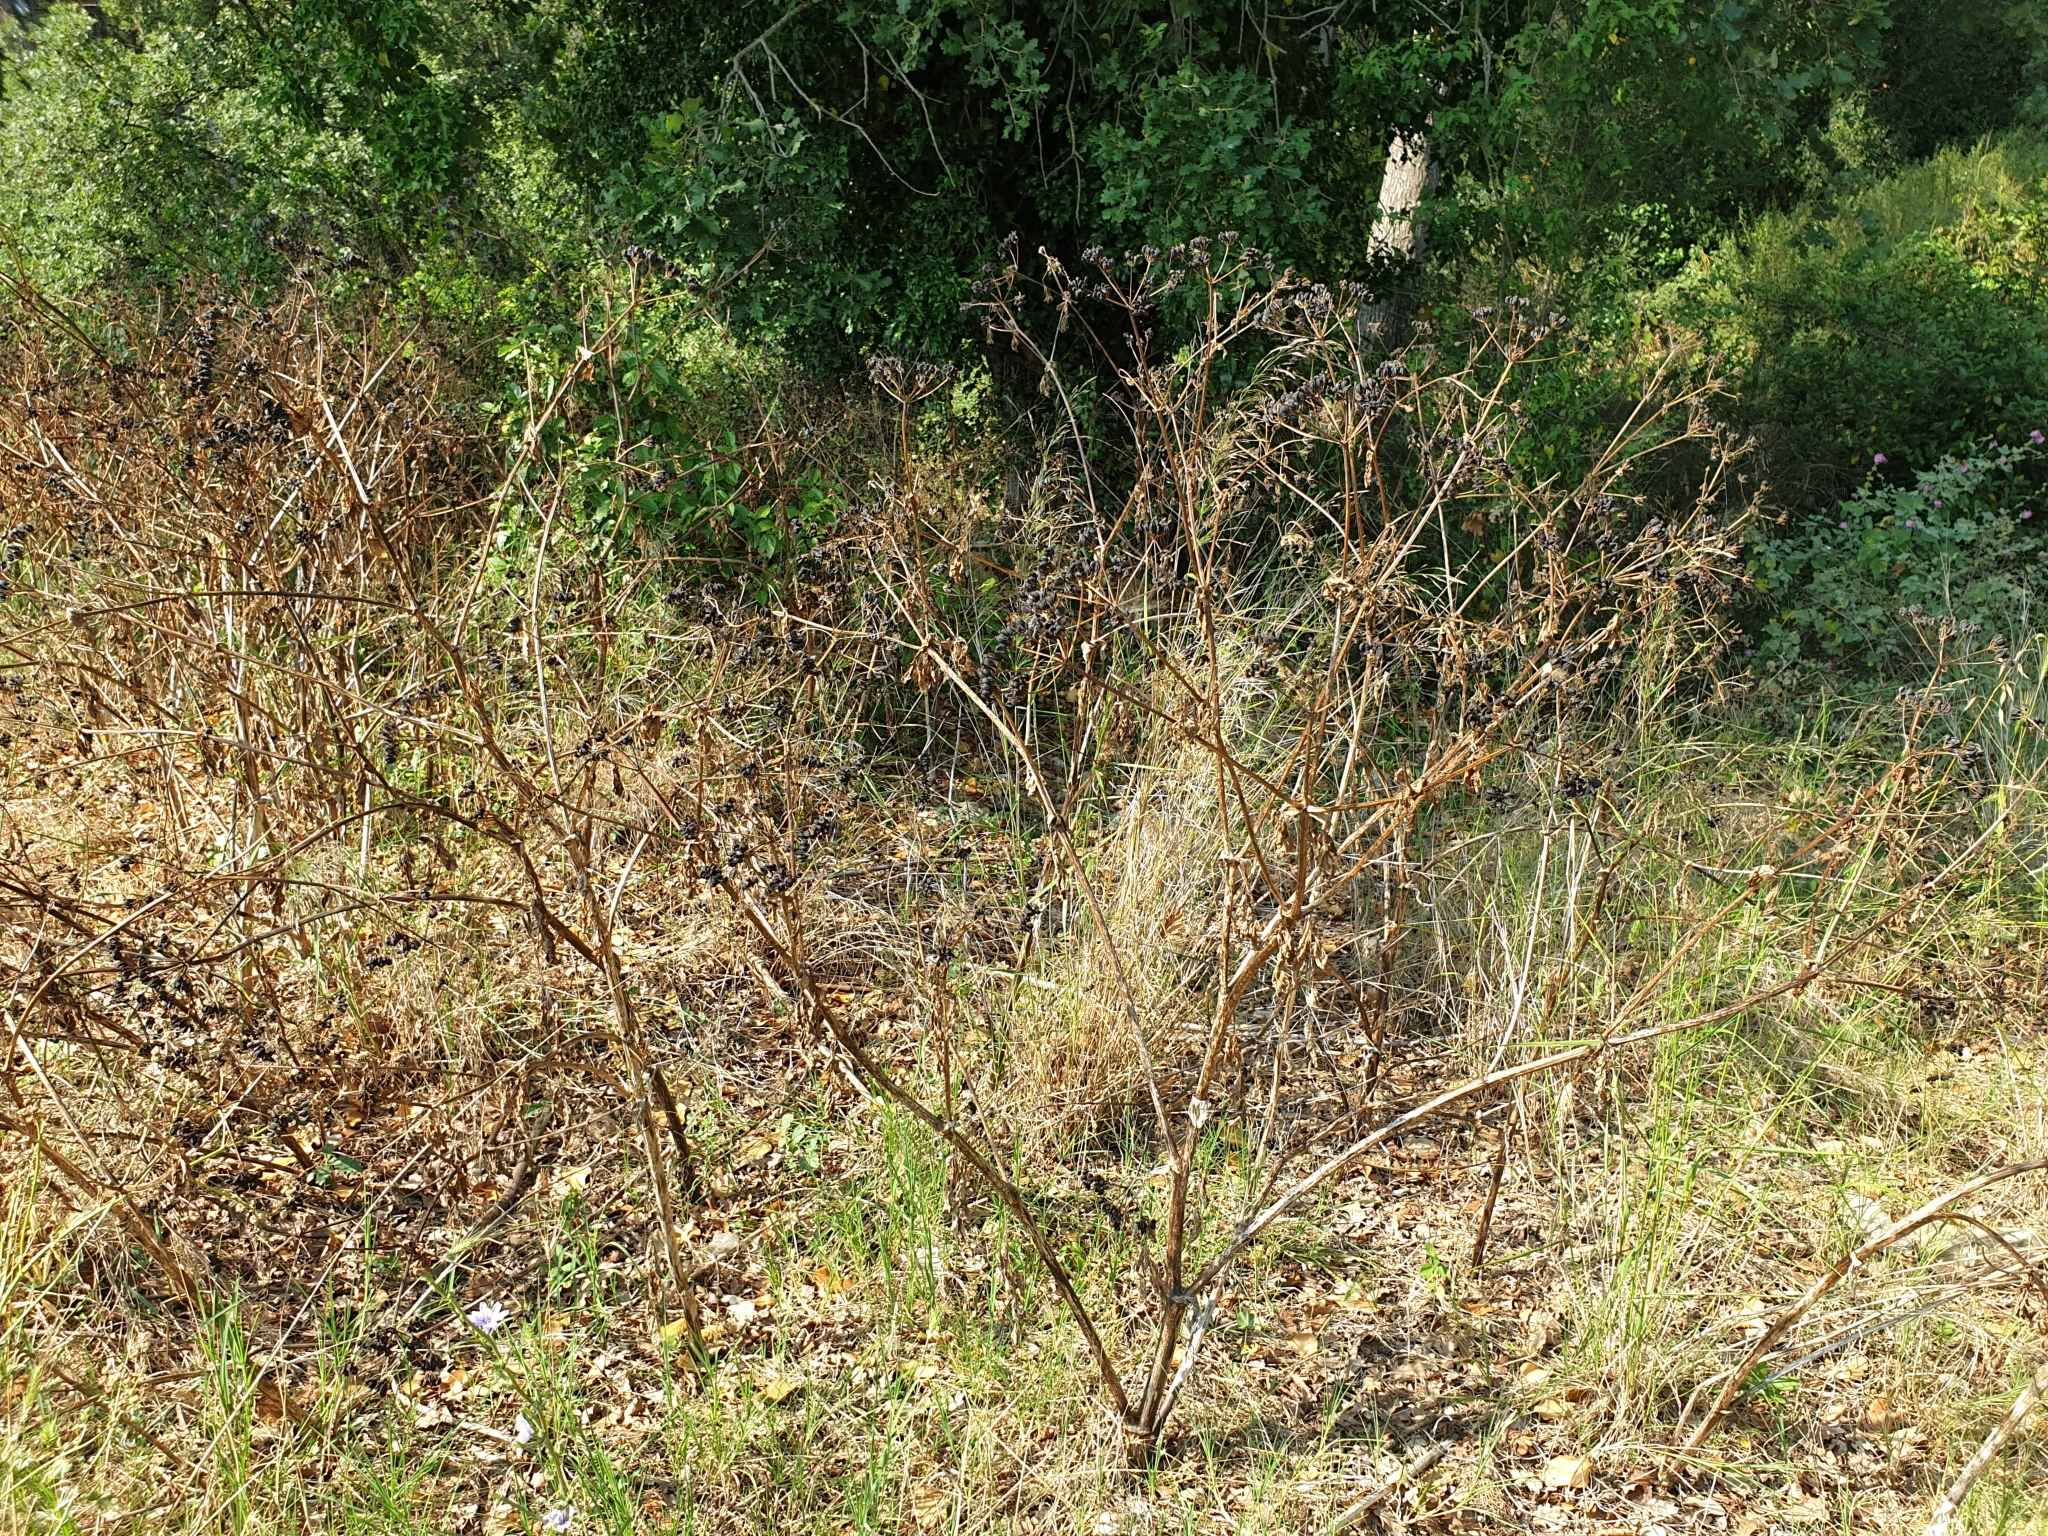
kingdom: Plantae
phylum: Tracheophyta
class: Magnoliopsida
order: Apiales
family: Apiaceae
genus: Smyrnium
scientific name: Smyrnium olusatrum
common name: Alexanders
